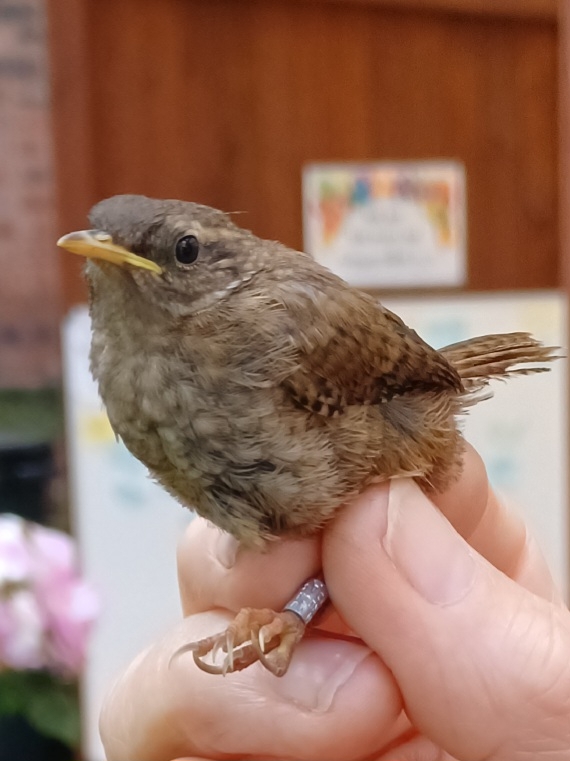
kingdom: Animalia
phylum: Chordata
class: Aves
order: Passeriformes
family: Troglodytidae
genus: Troglodytes
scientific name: Troglodytes troglodytes
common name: Eurasian wren
